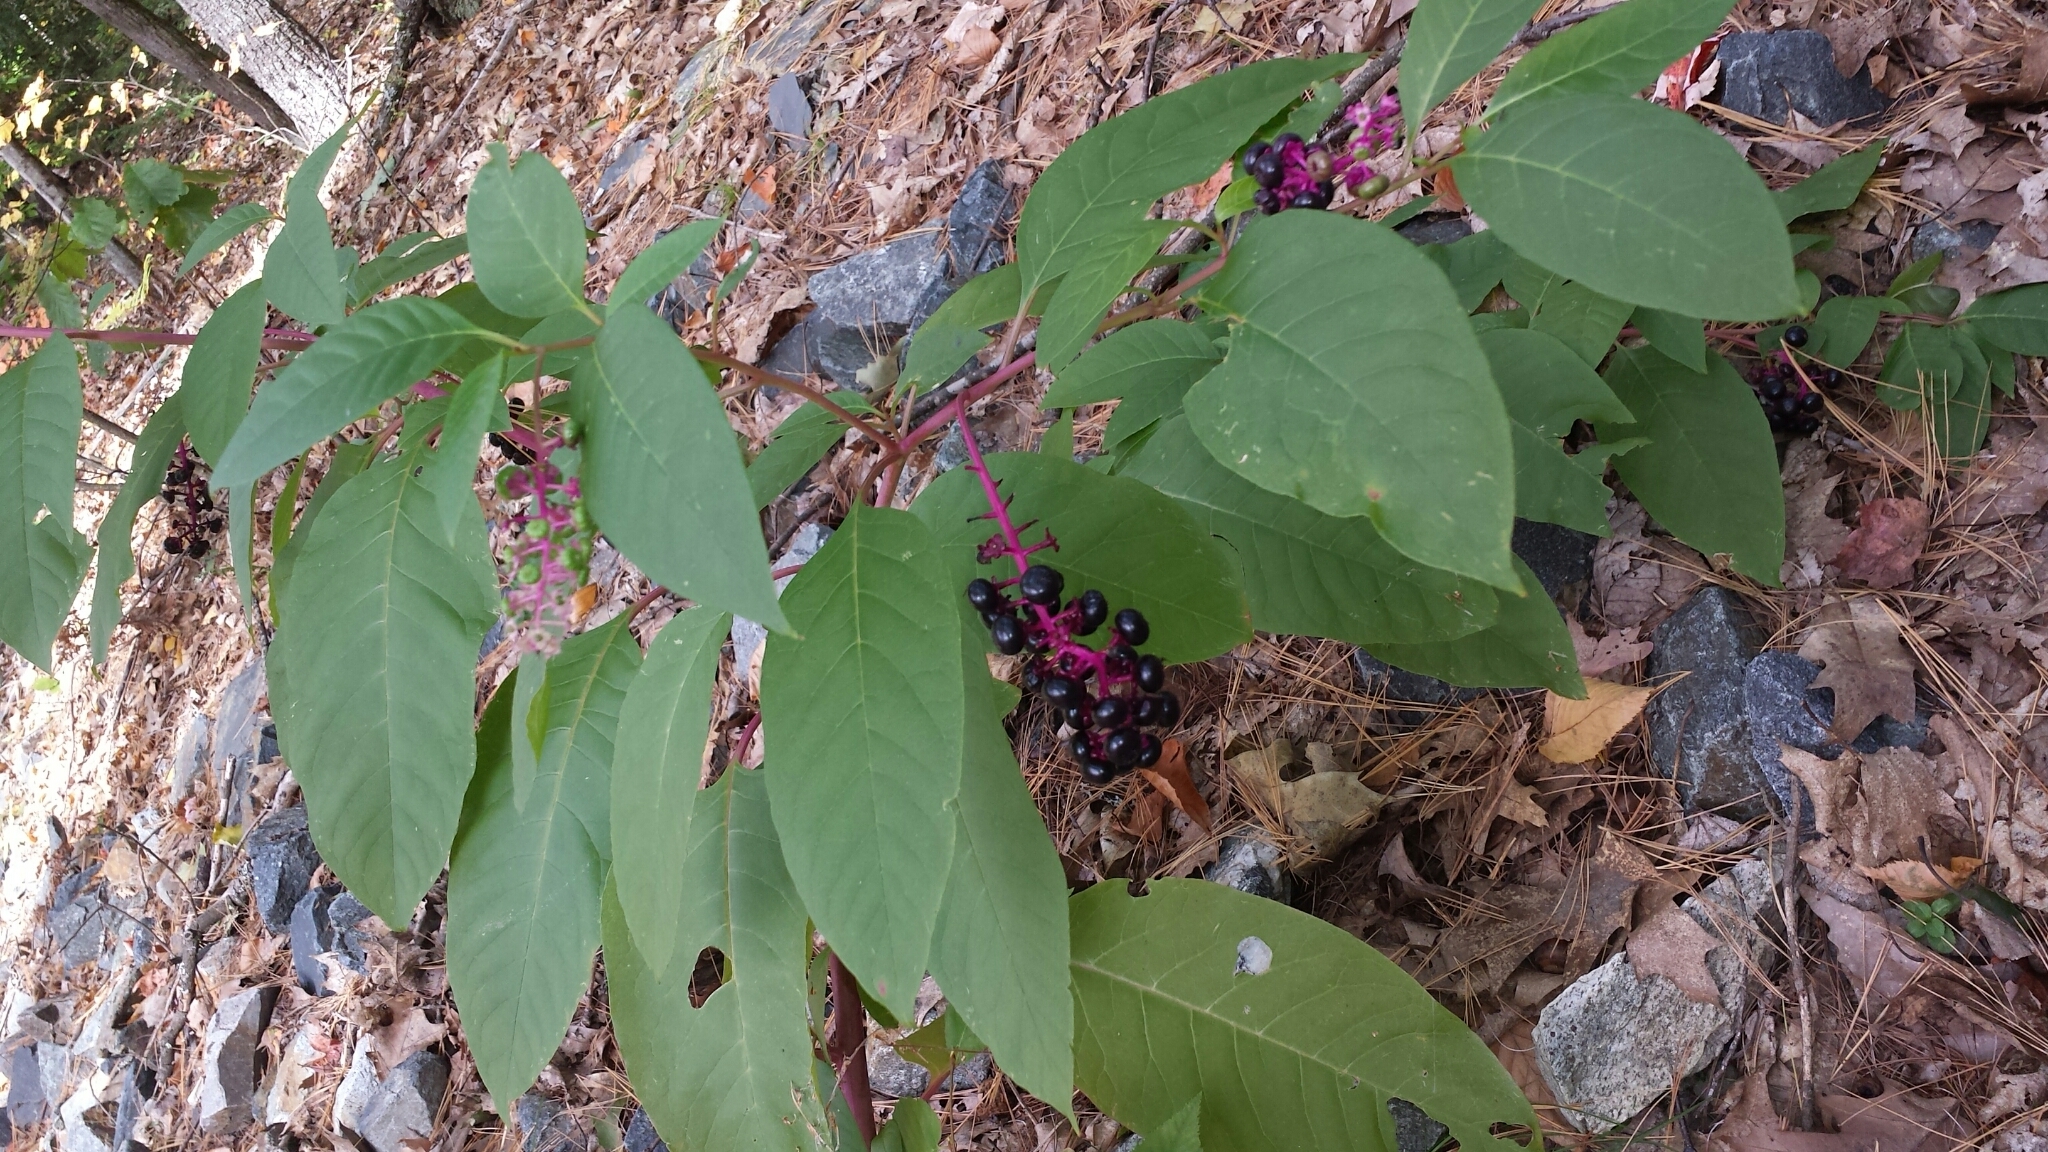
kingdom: Plantae
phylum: Tracheophyta
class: Magnoliopsida
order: Caryophyllales
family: Phytolaccaceae
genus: Phytolacca
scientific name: Phytolacca americana
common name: American pokeweed
